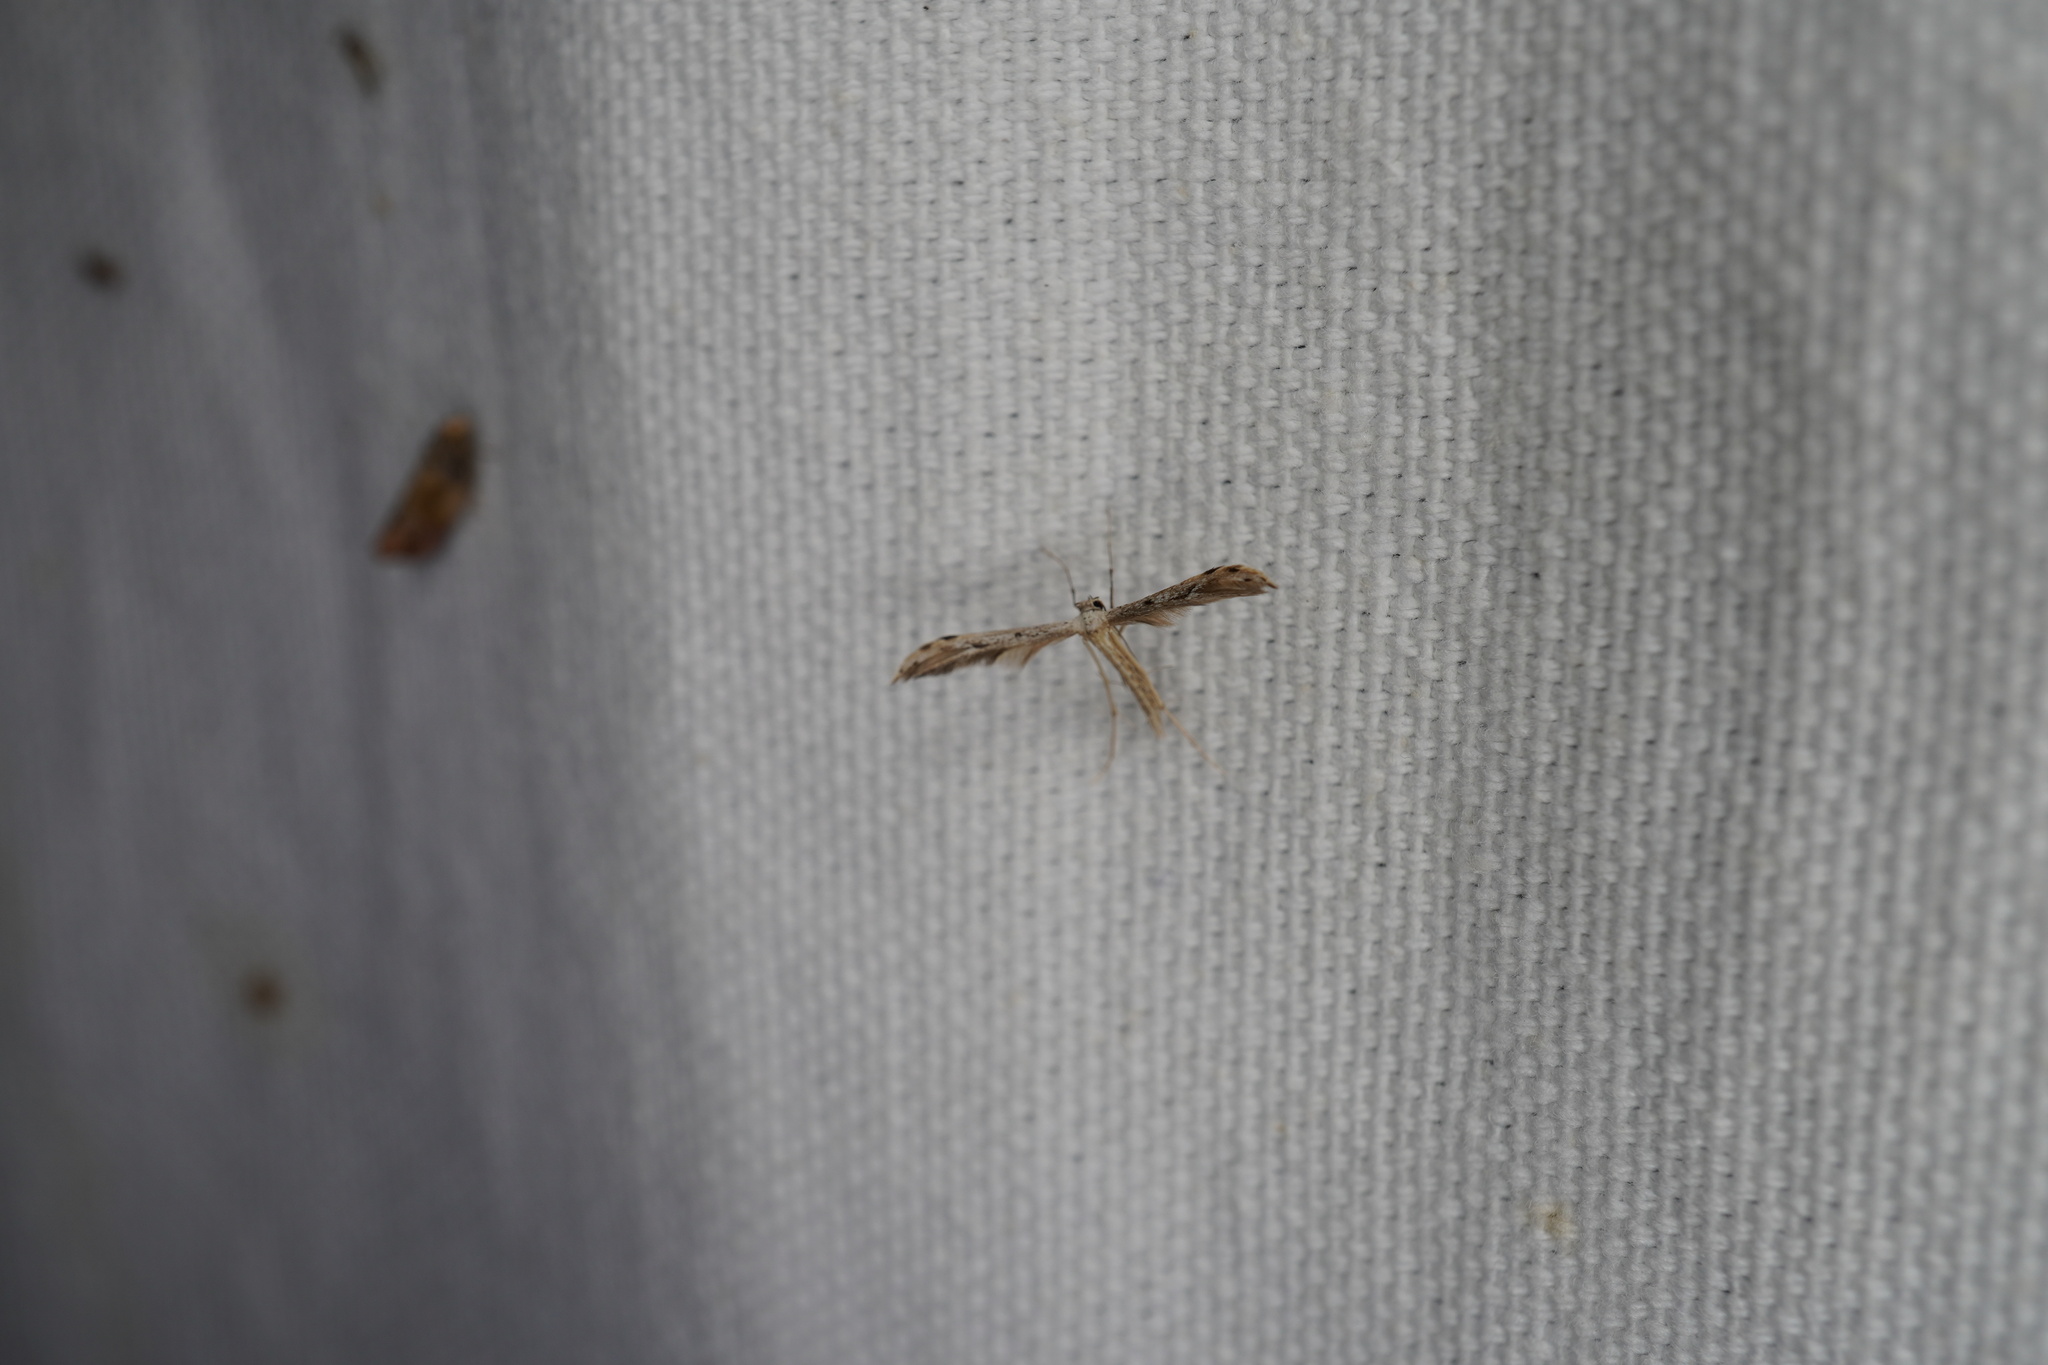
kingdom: Animalia
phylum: Arthropoda
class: Insecta
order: Lepidoptera
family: Pterophoridae
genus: Pselnophorus
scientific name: Pselnophorus belfragei
